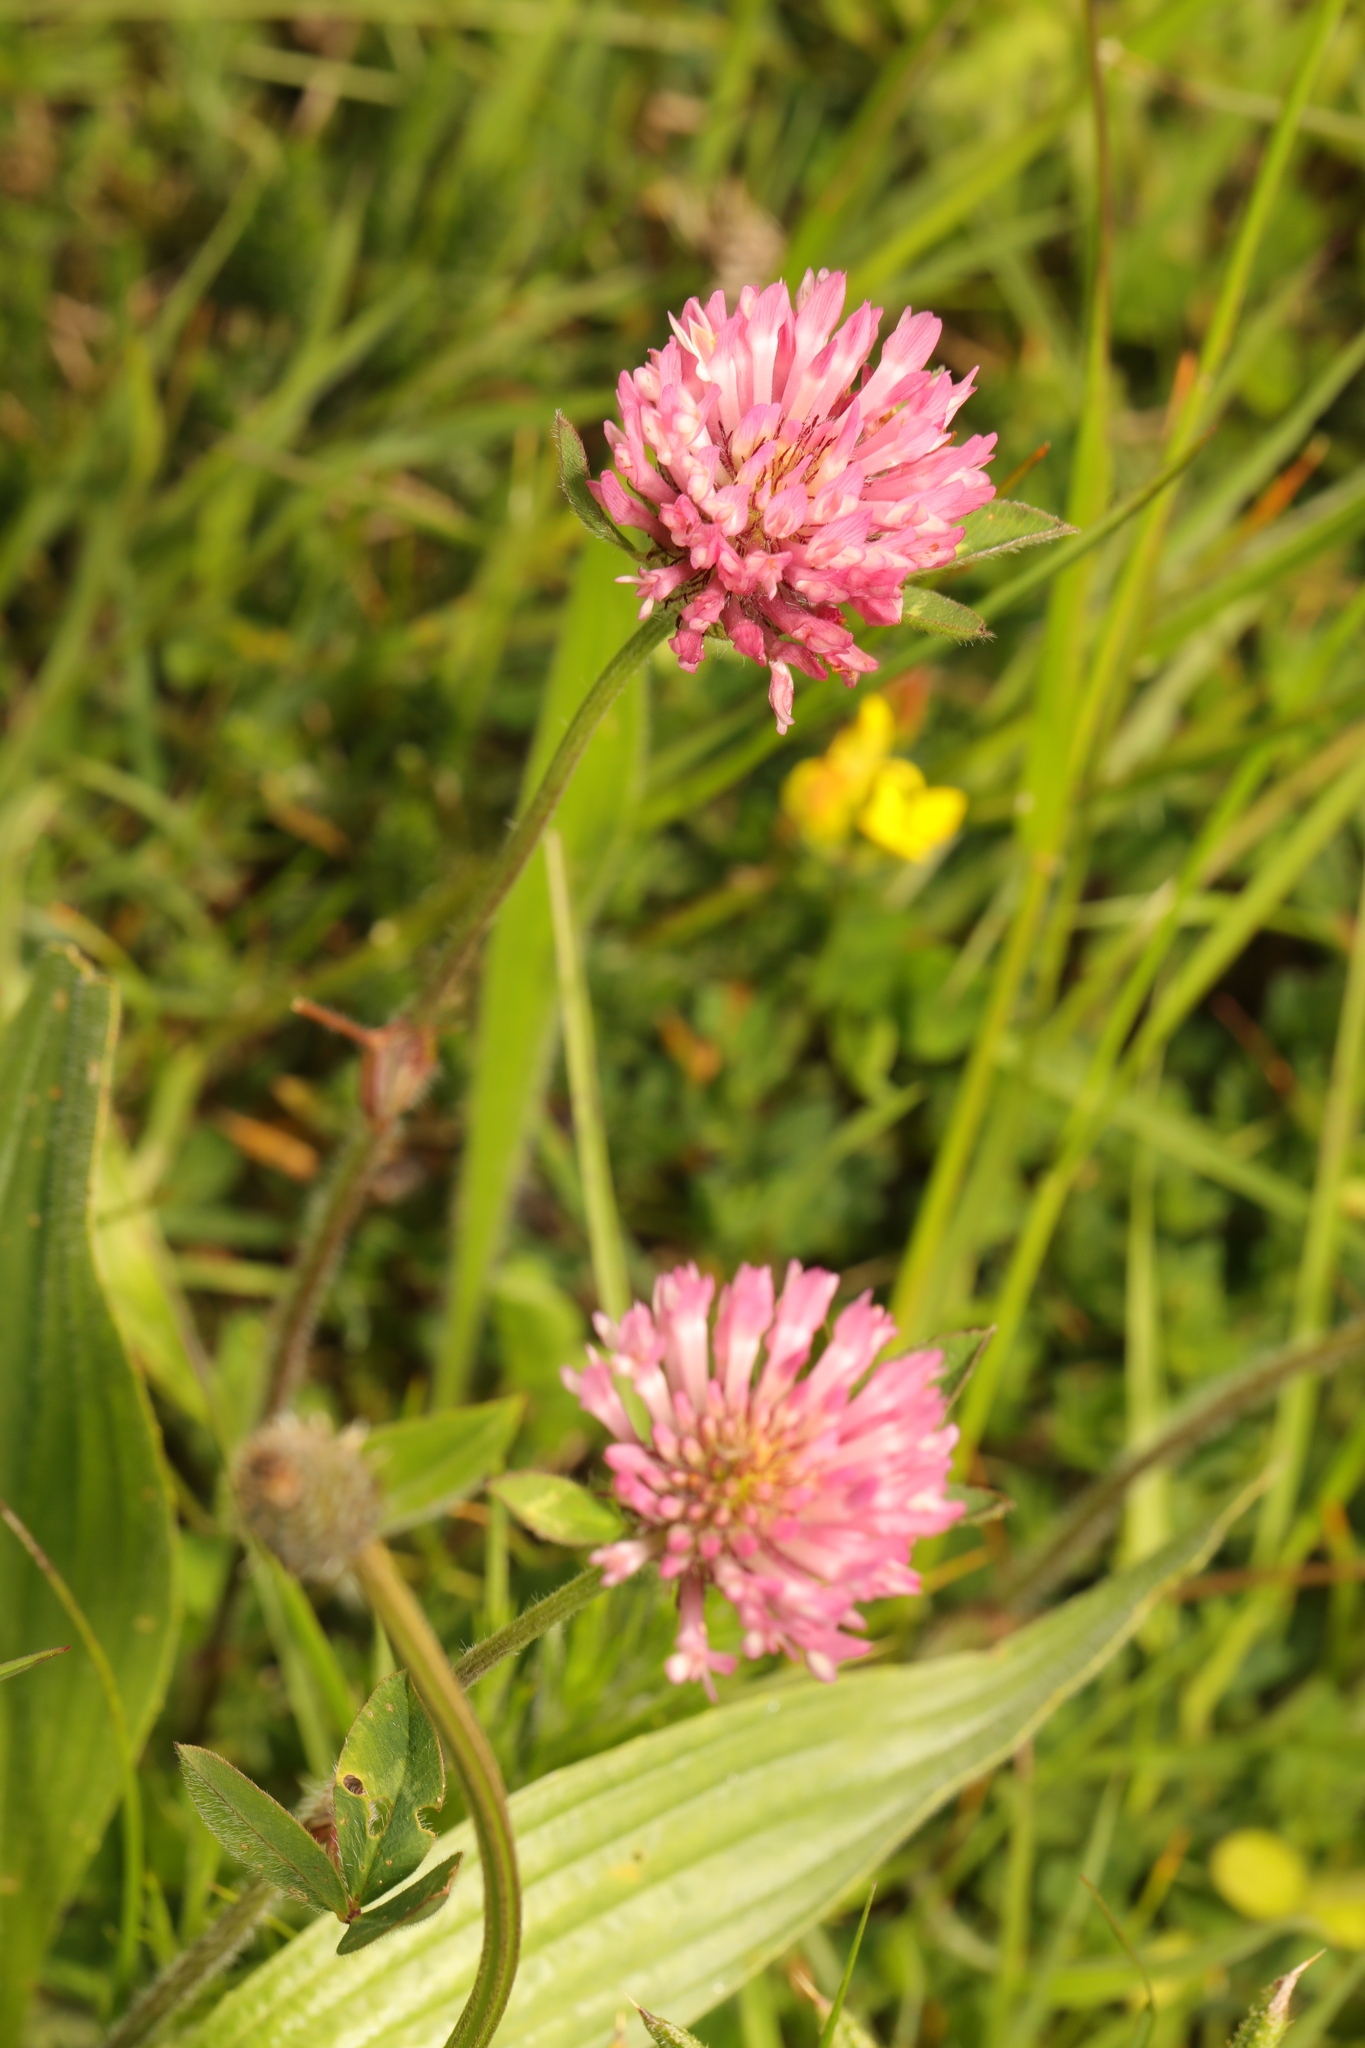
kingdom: Plantae
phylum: Tracheophyta
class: Magnoliopsida
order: Fabales
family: Fabaceae
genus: Trifolium
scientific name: Trifolium pratense
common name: Red clover
